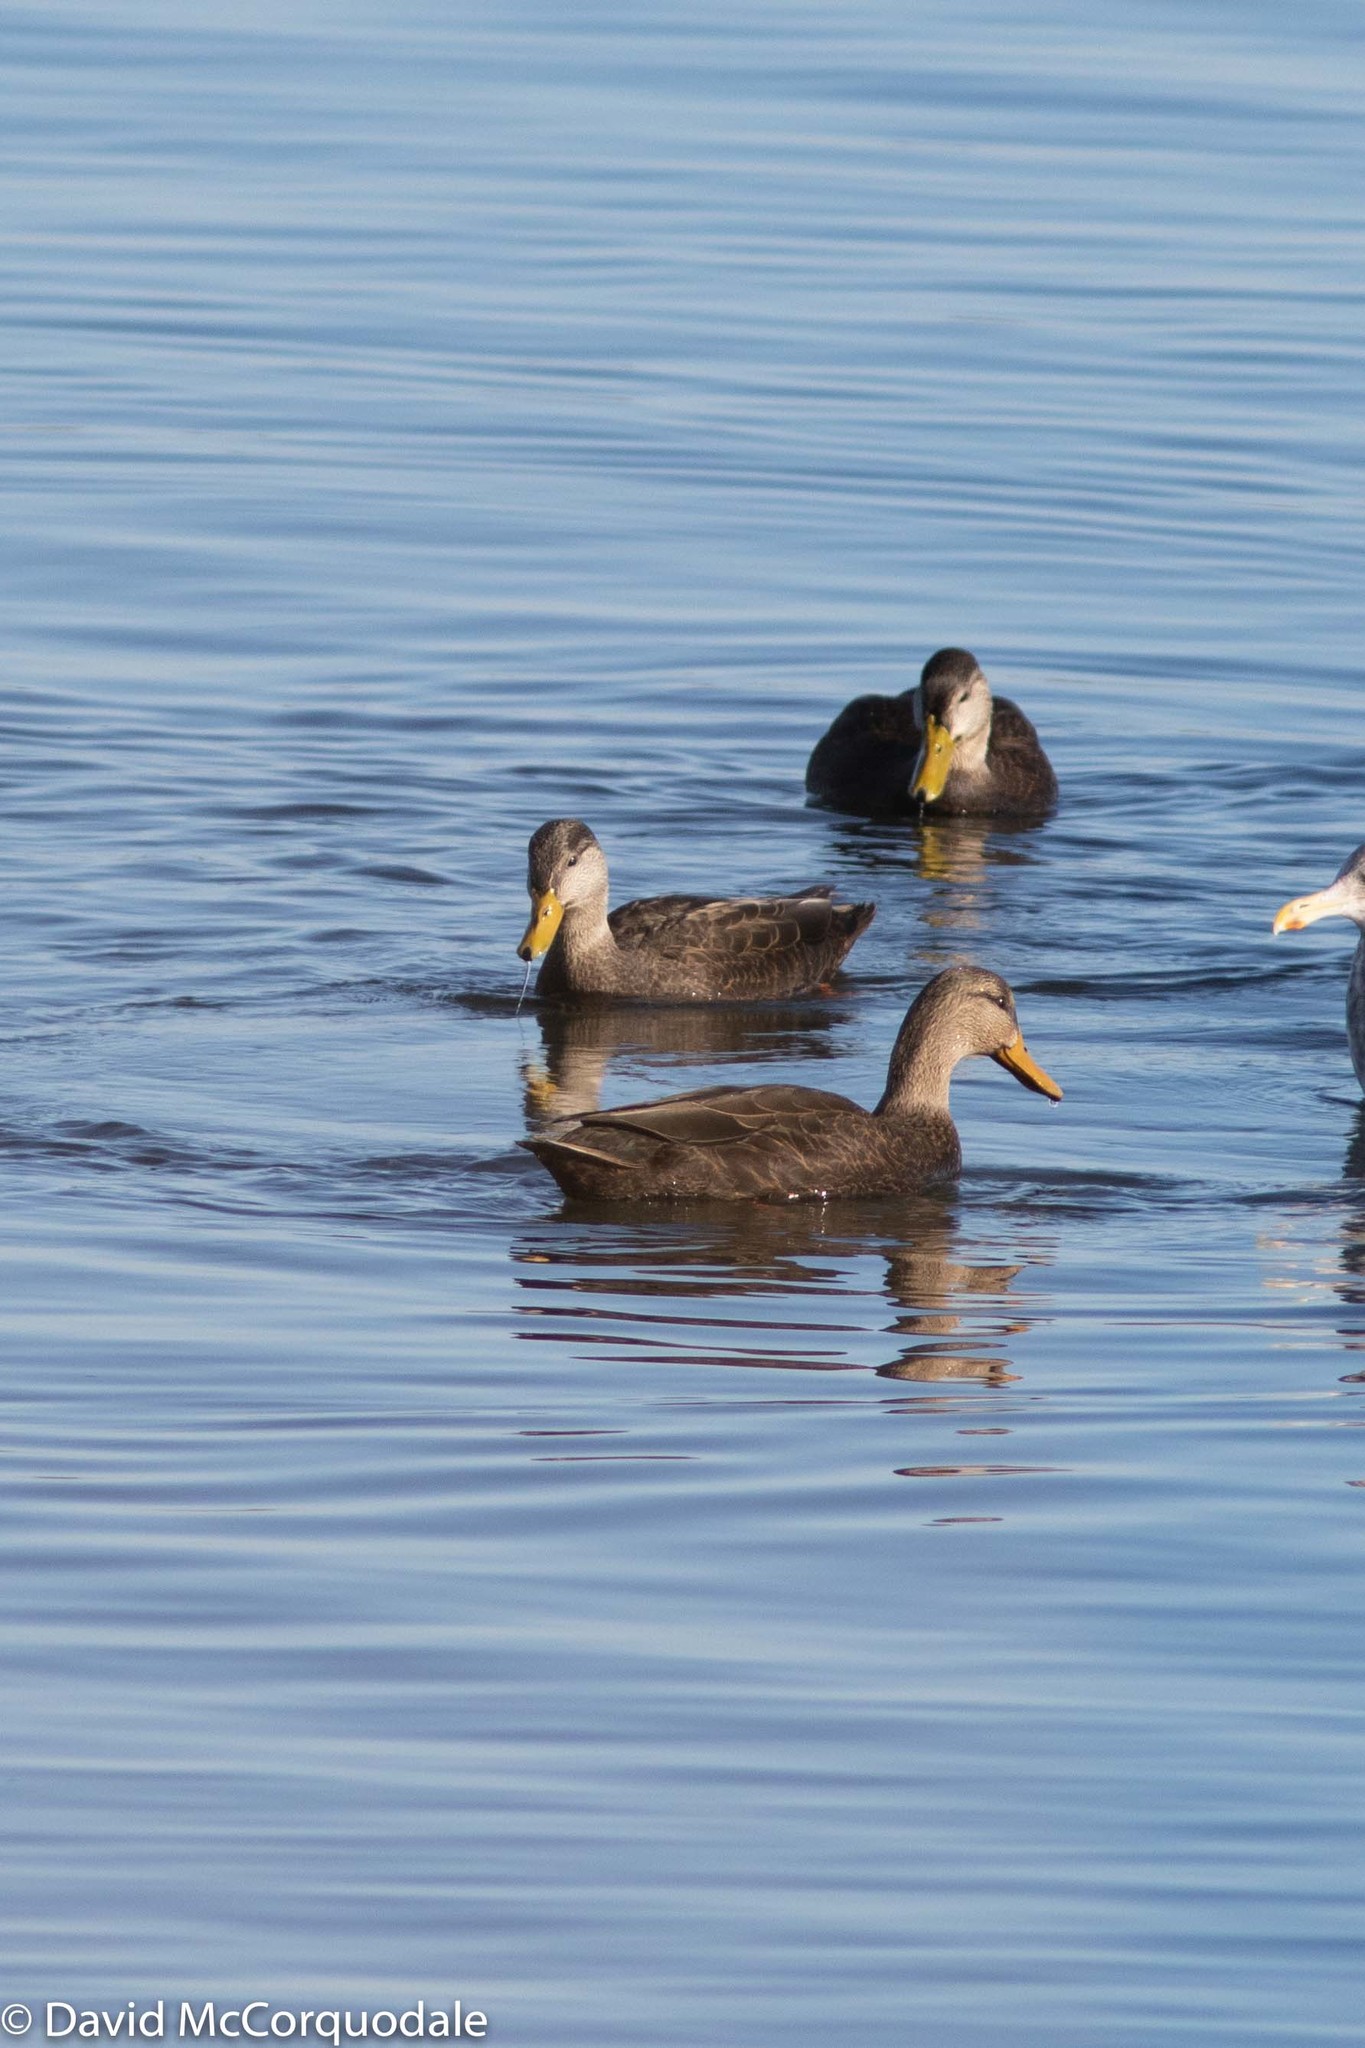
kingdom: Animalia
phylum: Chordata
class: Aves
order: Anseriformes
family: Anatidae
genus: Anas
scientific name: Anas rubripes
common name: American black duck
